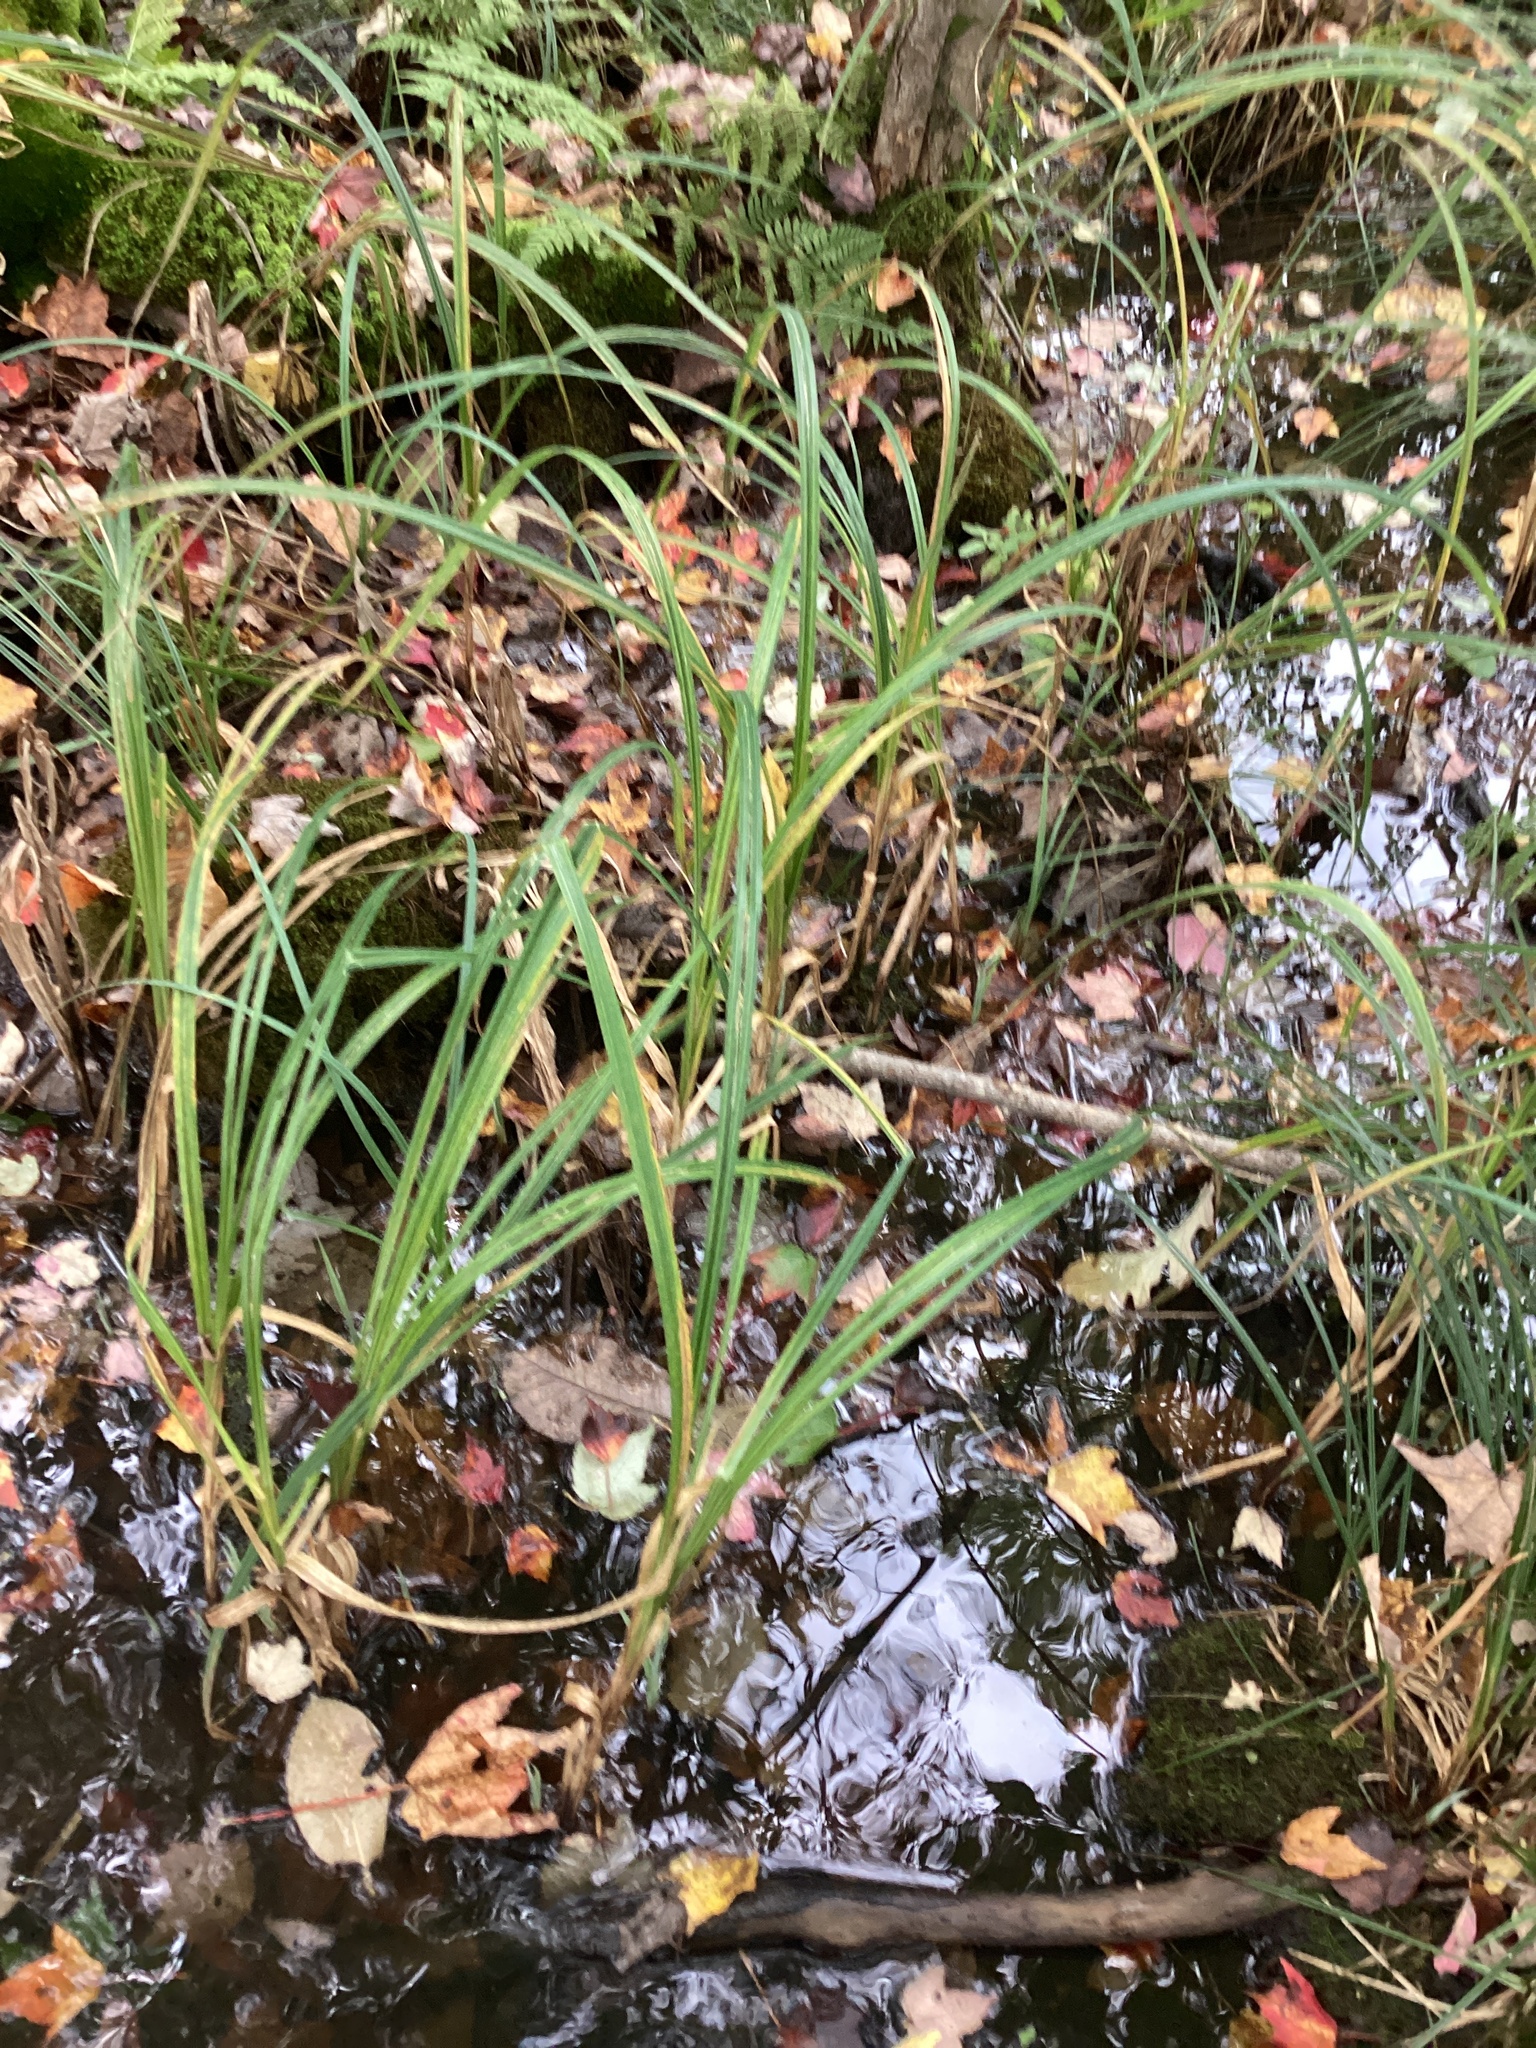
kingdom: Plantae
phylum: Tracheophyta
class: Liliopsida
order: Poales
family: Cyperaceae
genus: Carex
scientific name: Carex lacustris
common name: Common lake sedge
